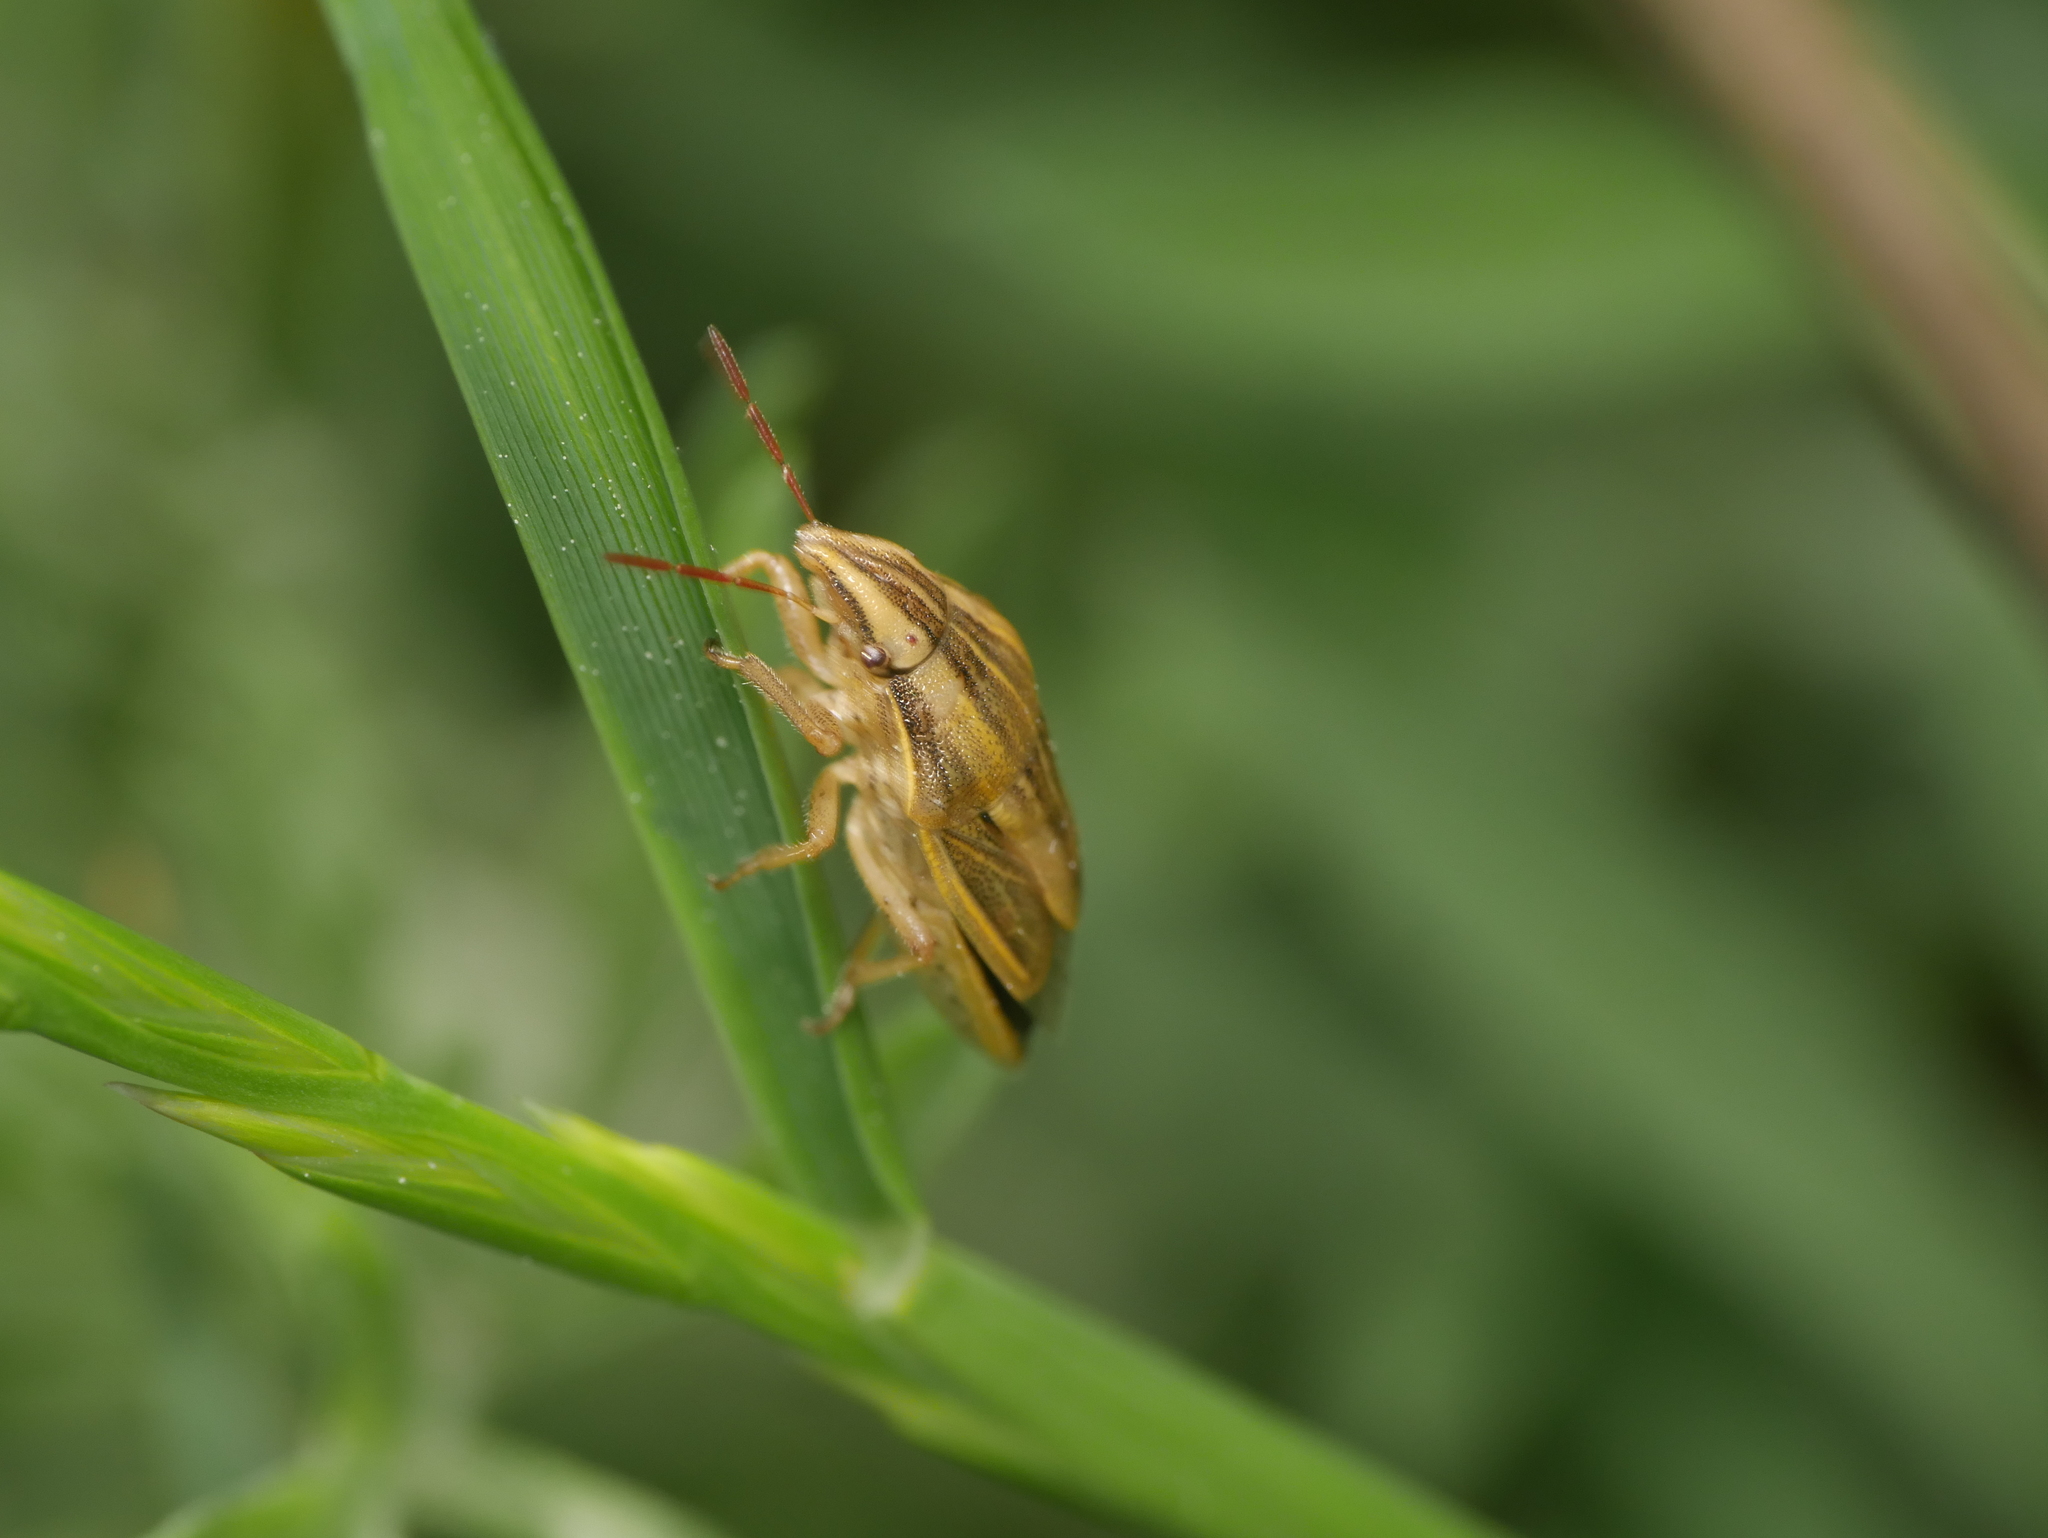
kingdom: Animalia
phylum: Arthropoda
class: Insecta
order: Hemiptera
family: Pentatomidae
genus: Aelia
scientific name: Aelia acuminata
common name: Bishop's mitre
